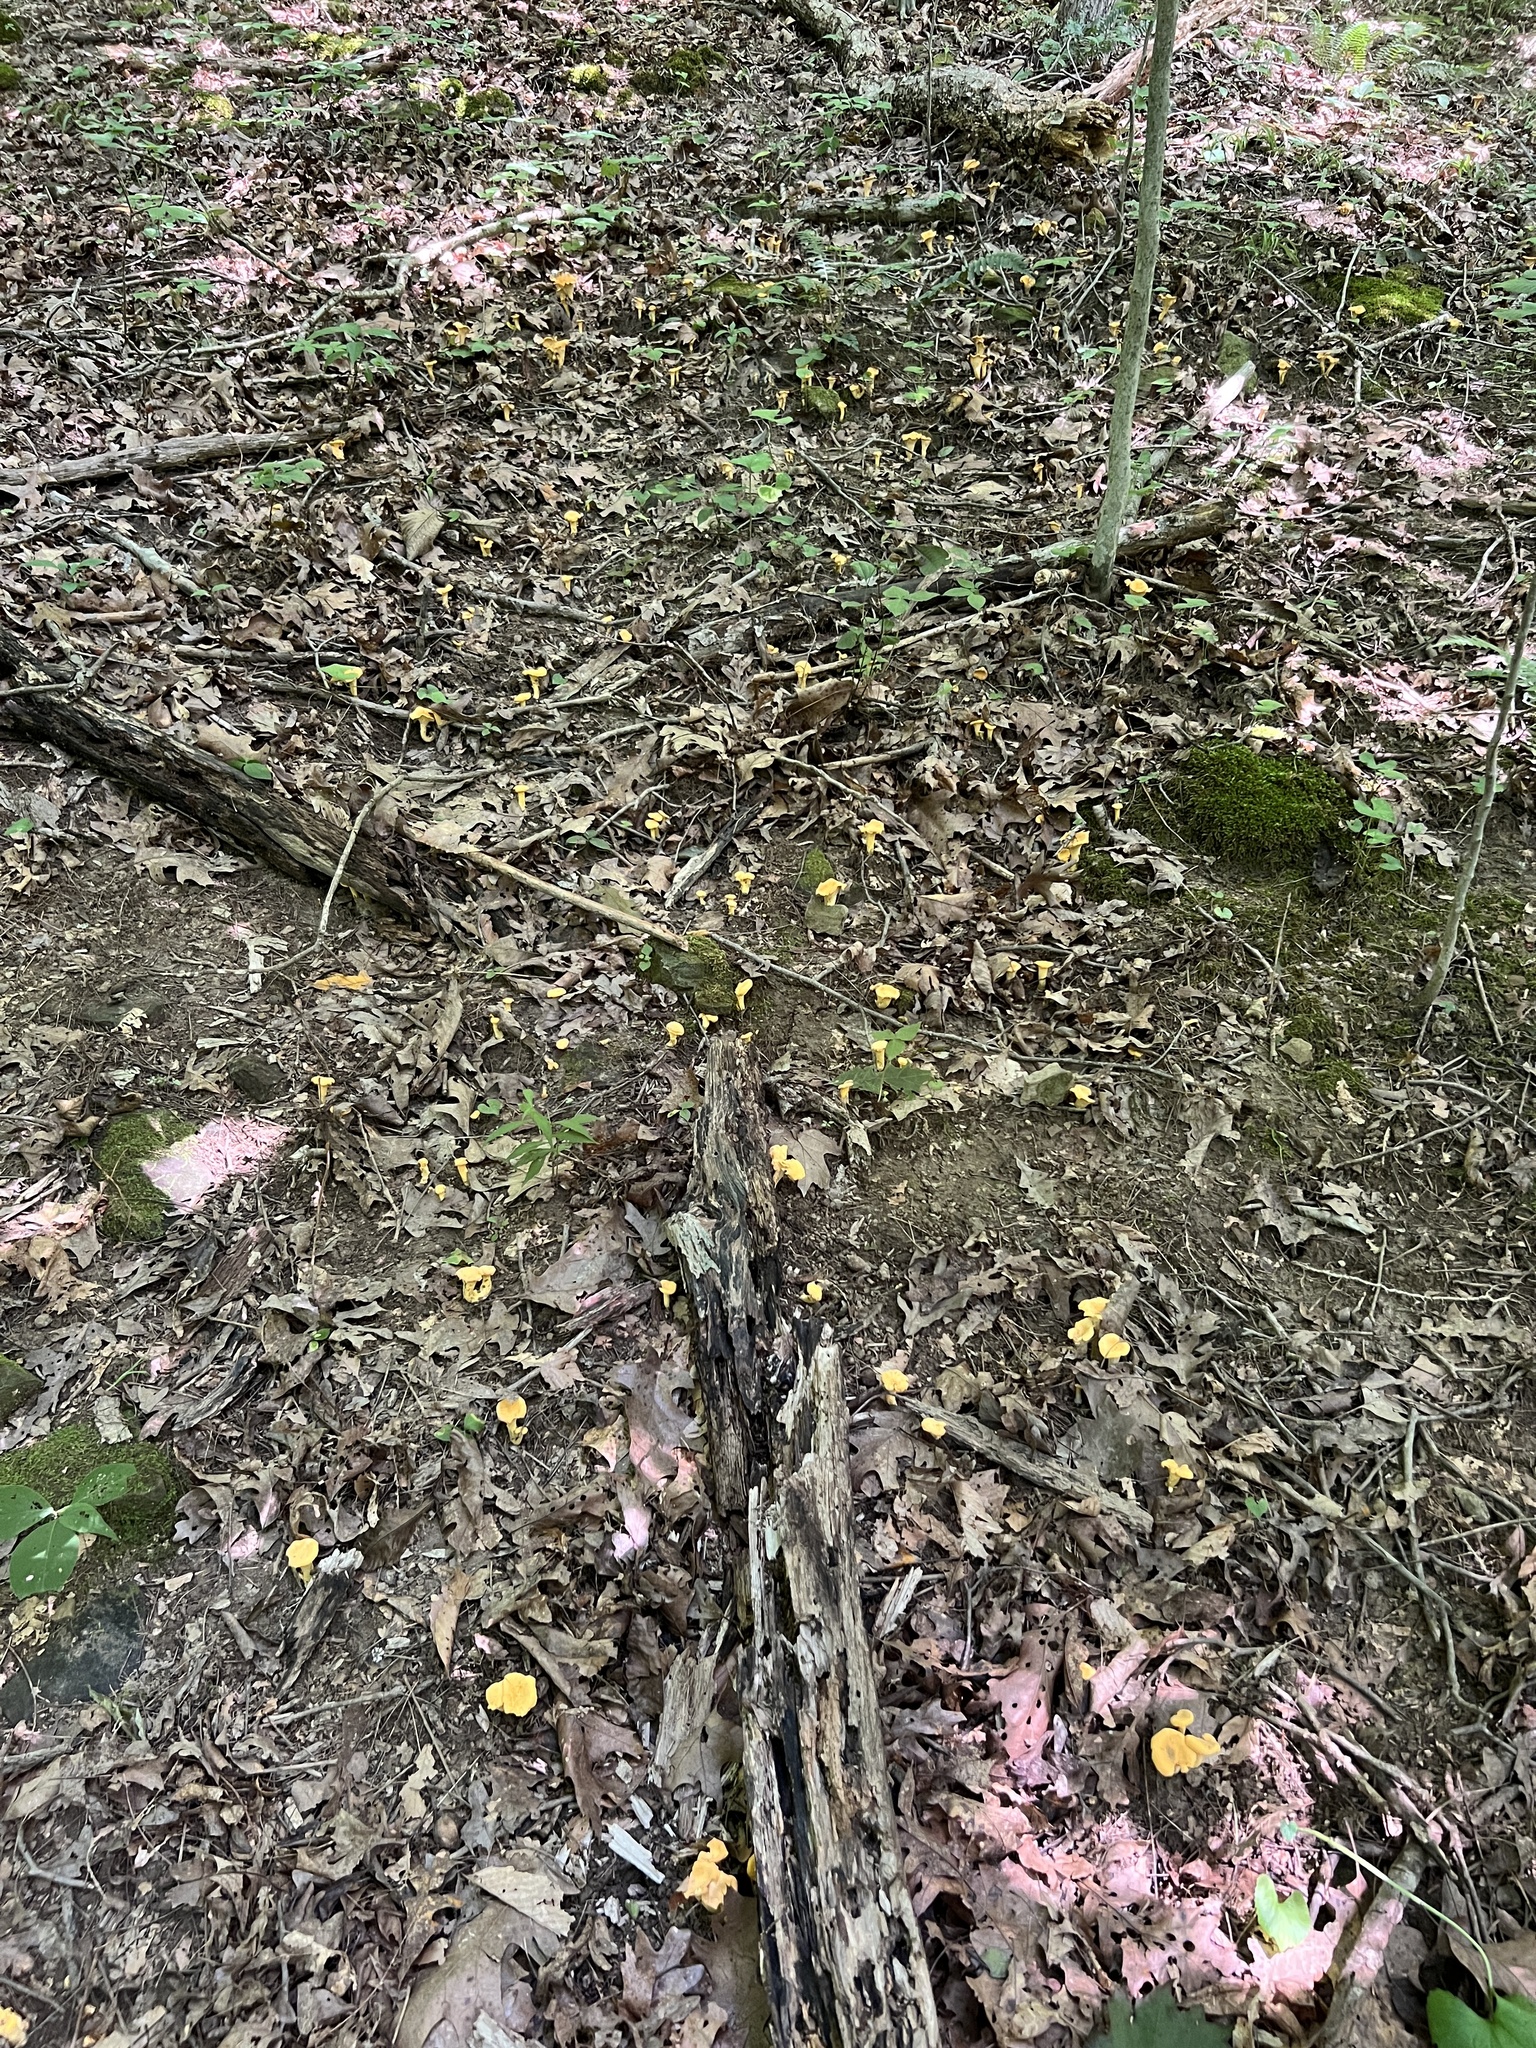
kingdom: Fungi
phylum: Basidiomycota
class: Agaricomycetes
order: Cantharellales
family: Hydnaceae
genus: Cantharellus
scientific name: Cantharellus flavolateritius
